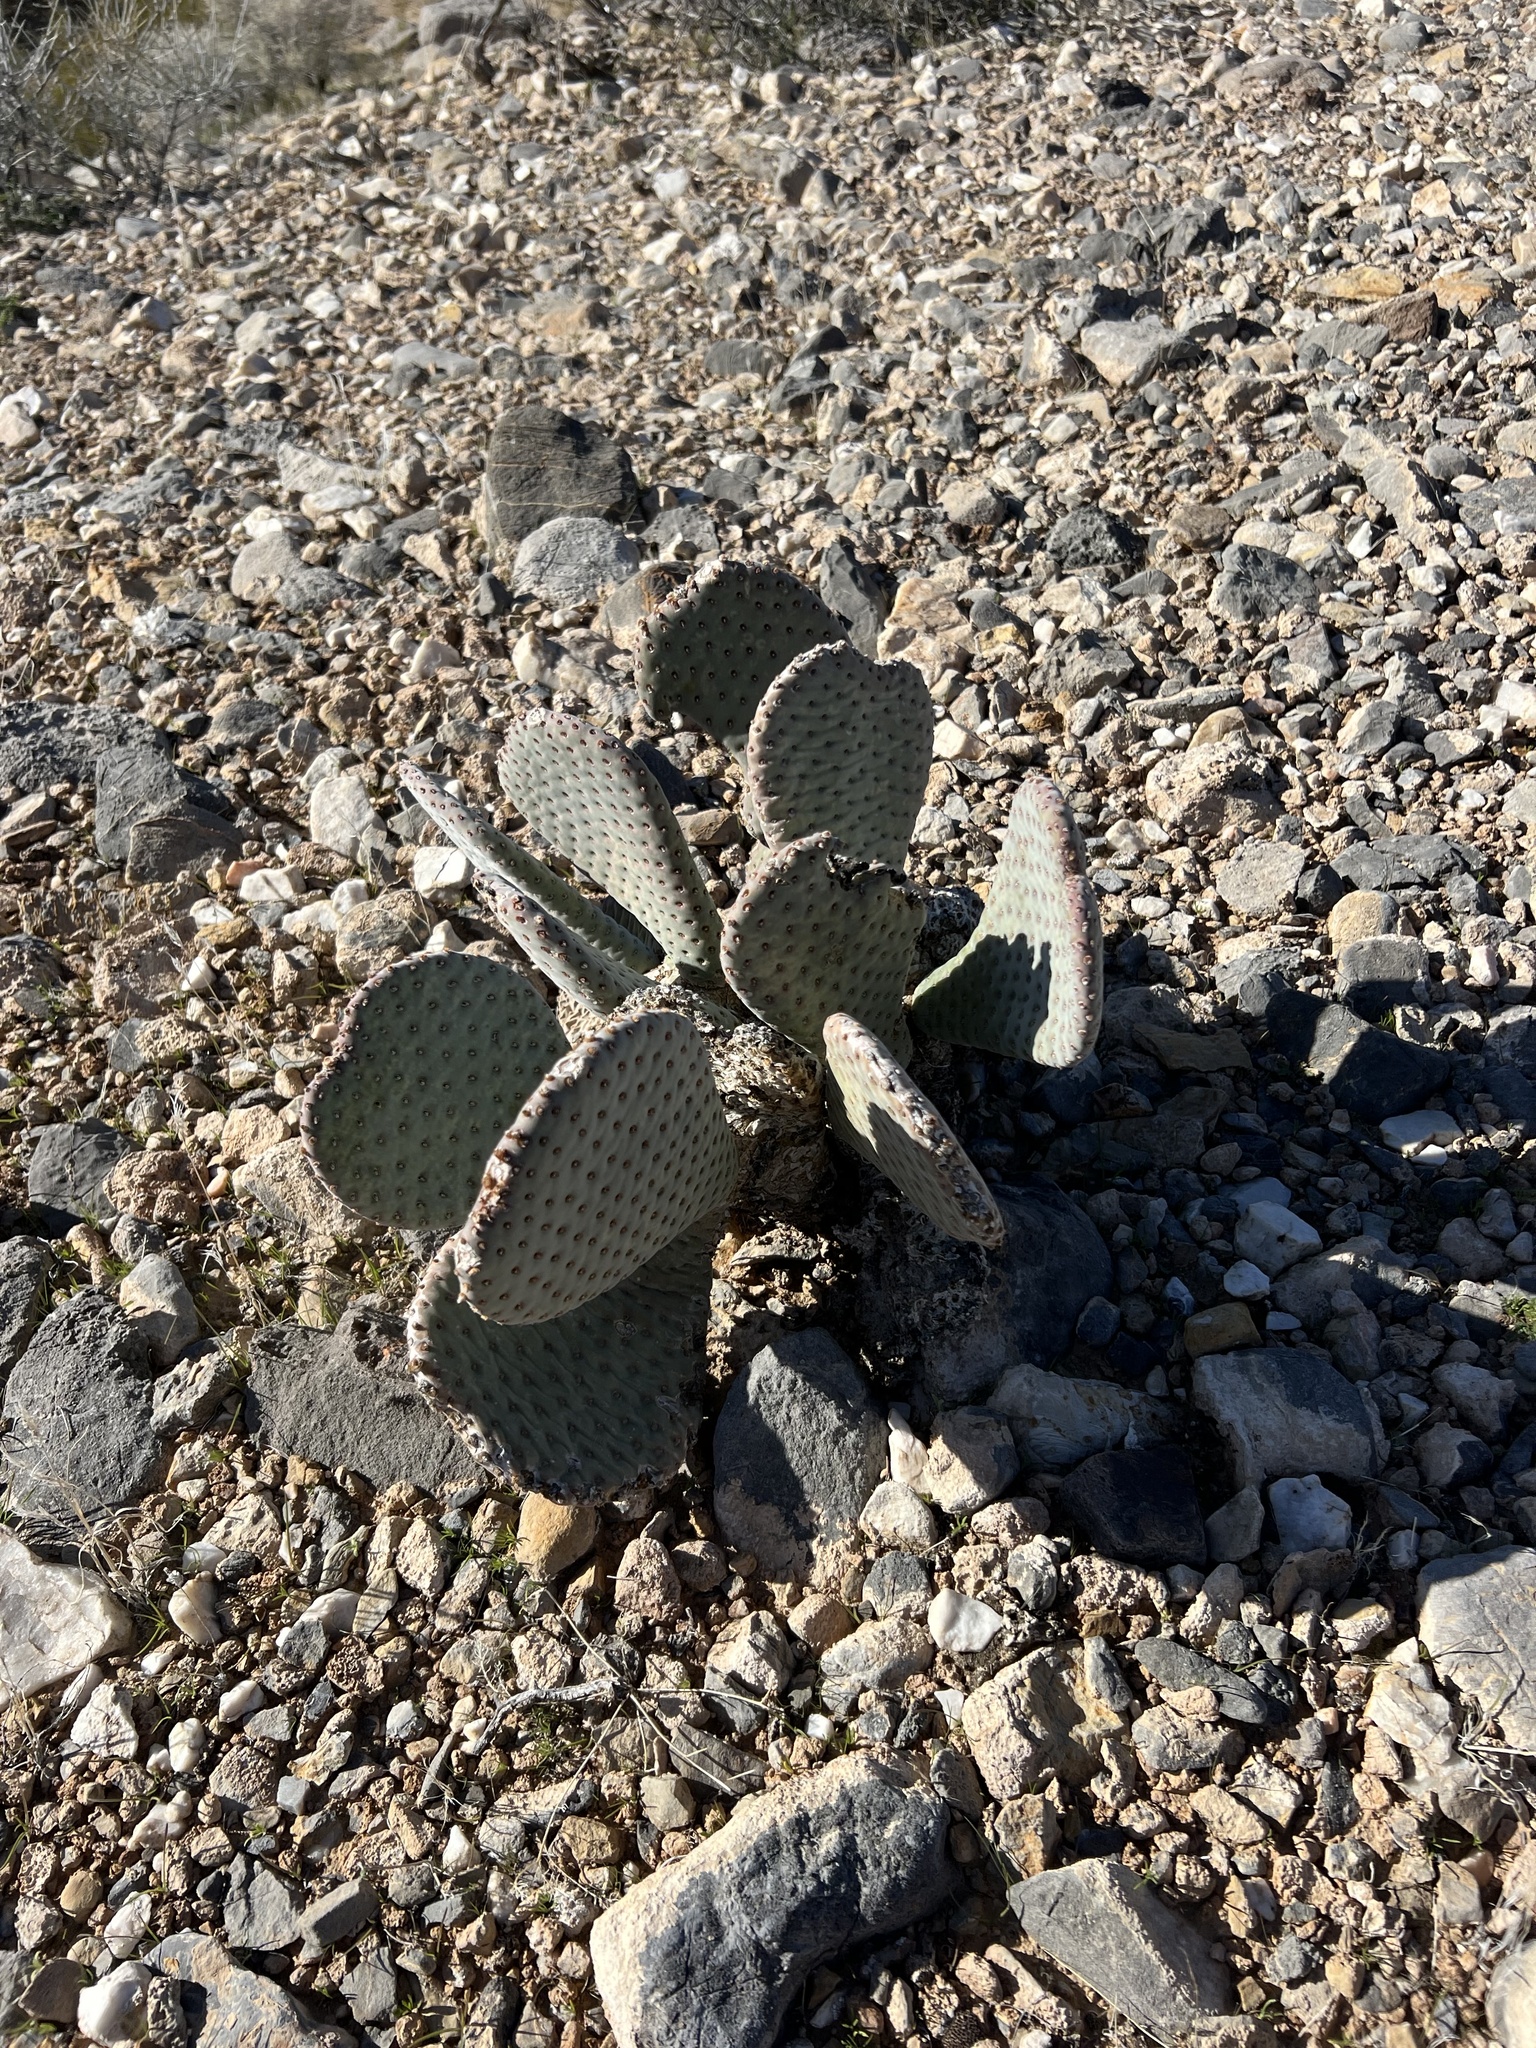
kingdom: Plantae
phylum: Tracheophyta
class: Magnoliopsida
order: Caryophyllales
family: Cactaceae
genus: Opuntia
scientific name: Opuntia basilaris
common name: Beavertail prickly-pear
